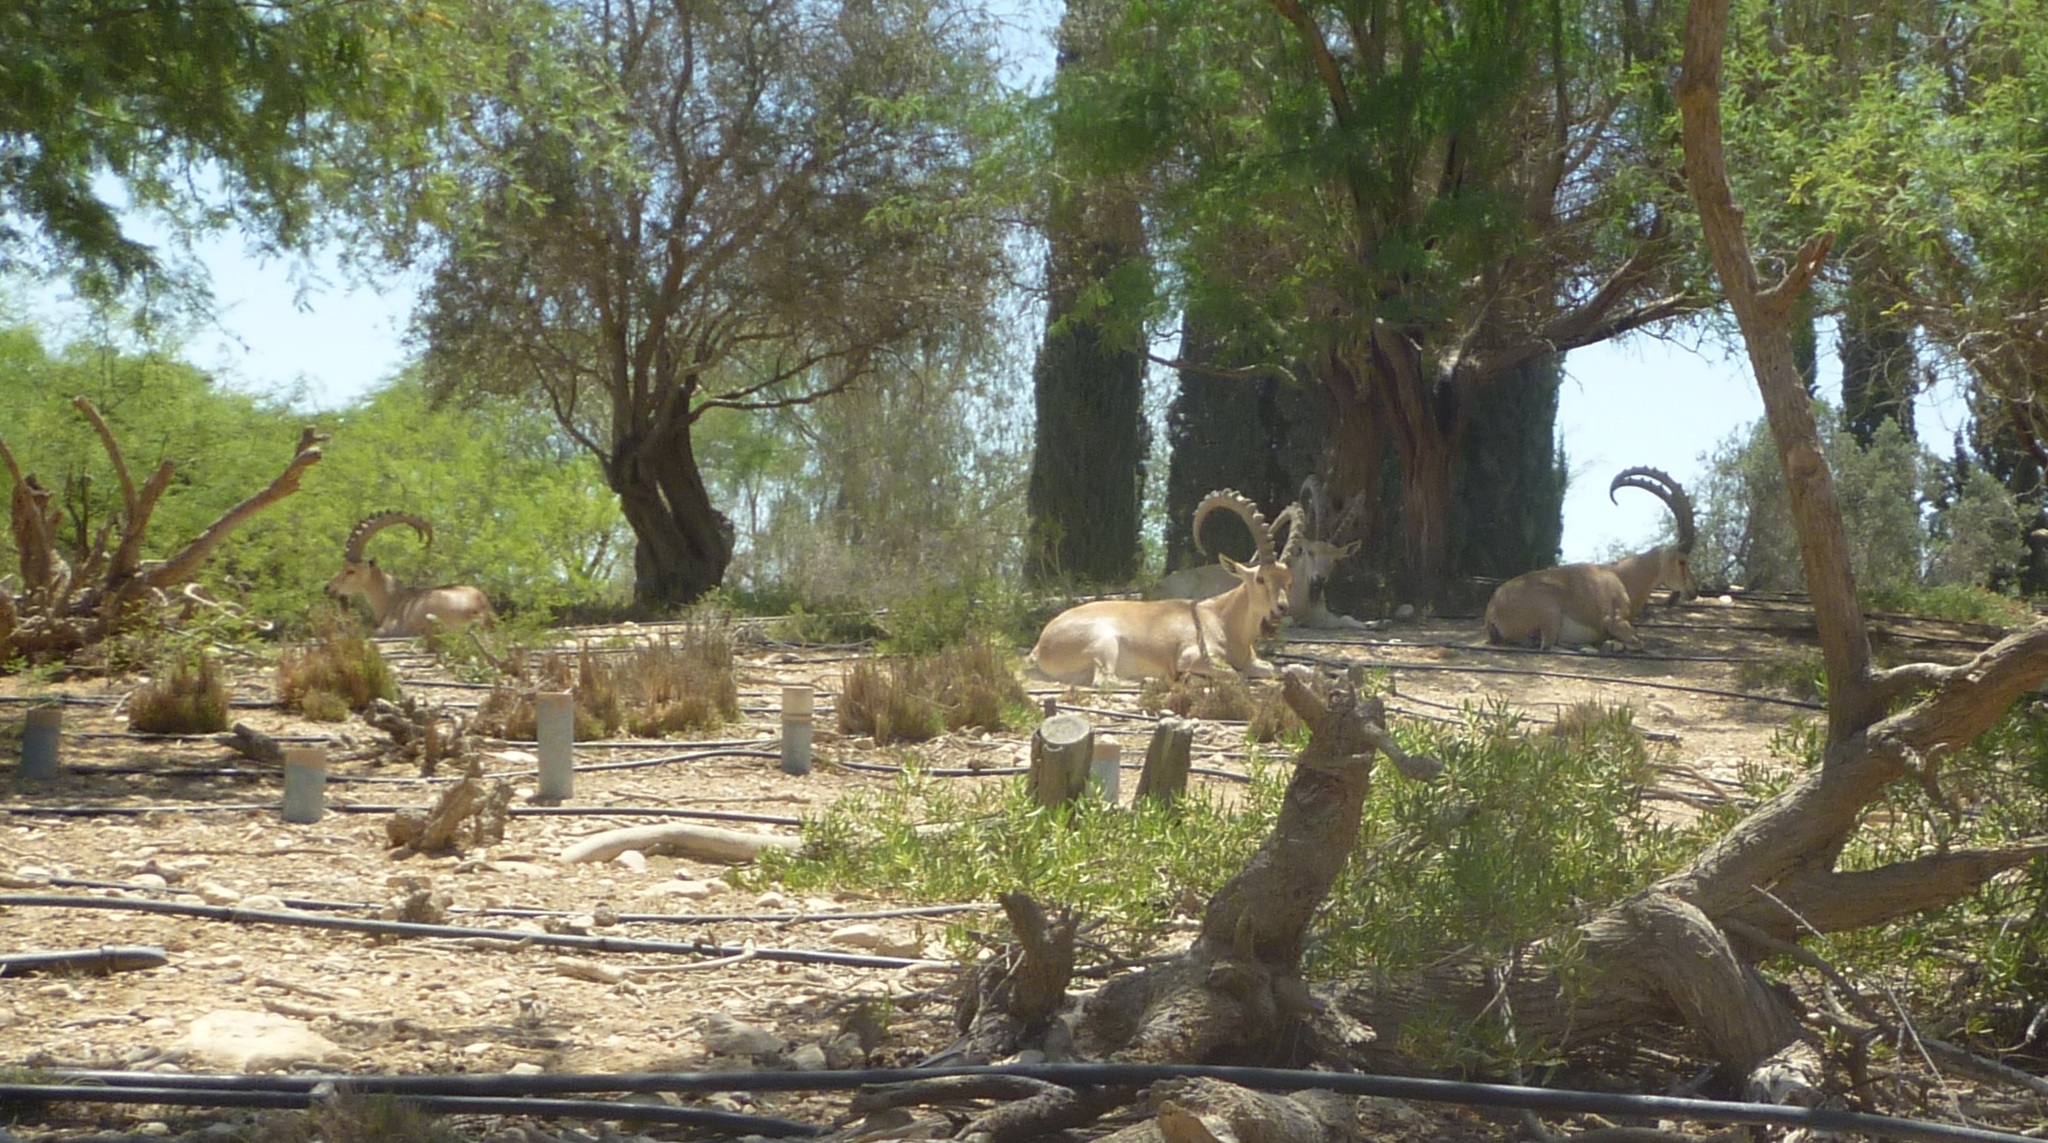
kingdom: Animalia
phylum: Chordata
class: Mammalia
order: Artiodactyla
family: Bovidae
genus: Capra
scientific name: Capra nubiana
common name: Nubian ibex
